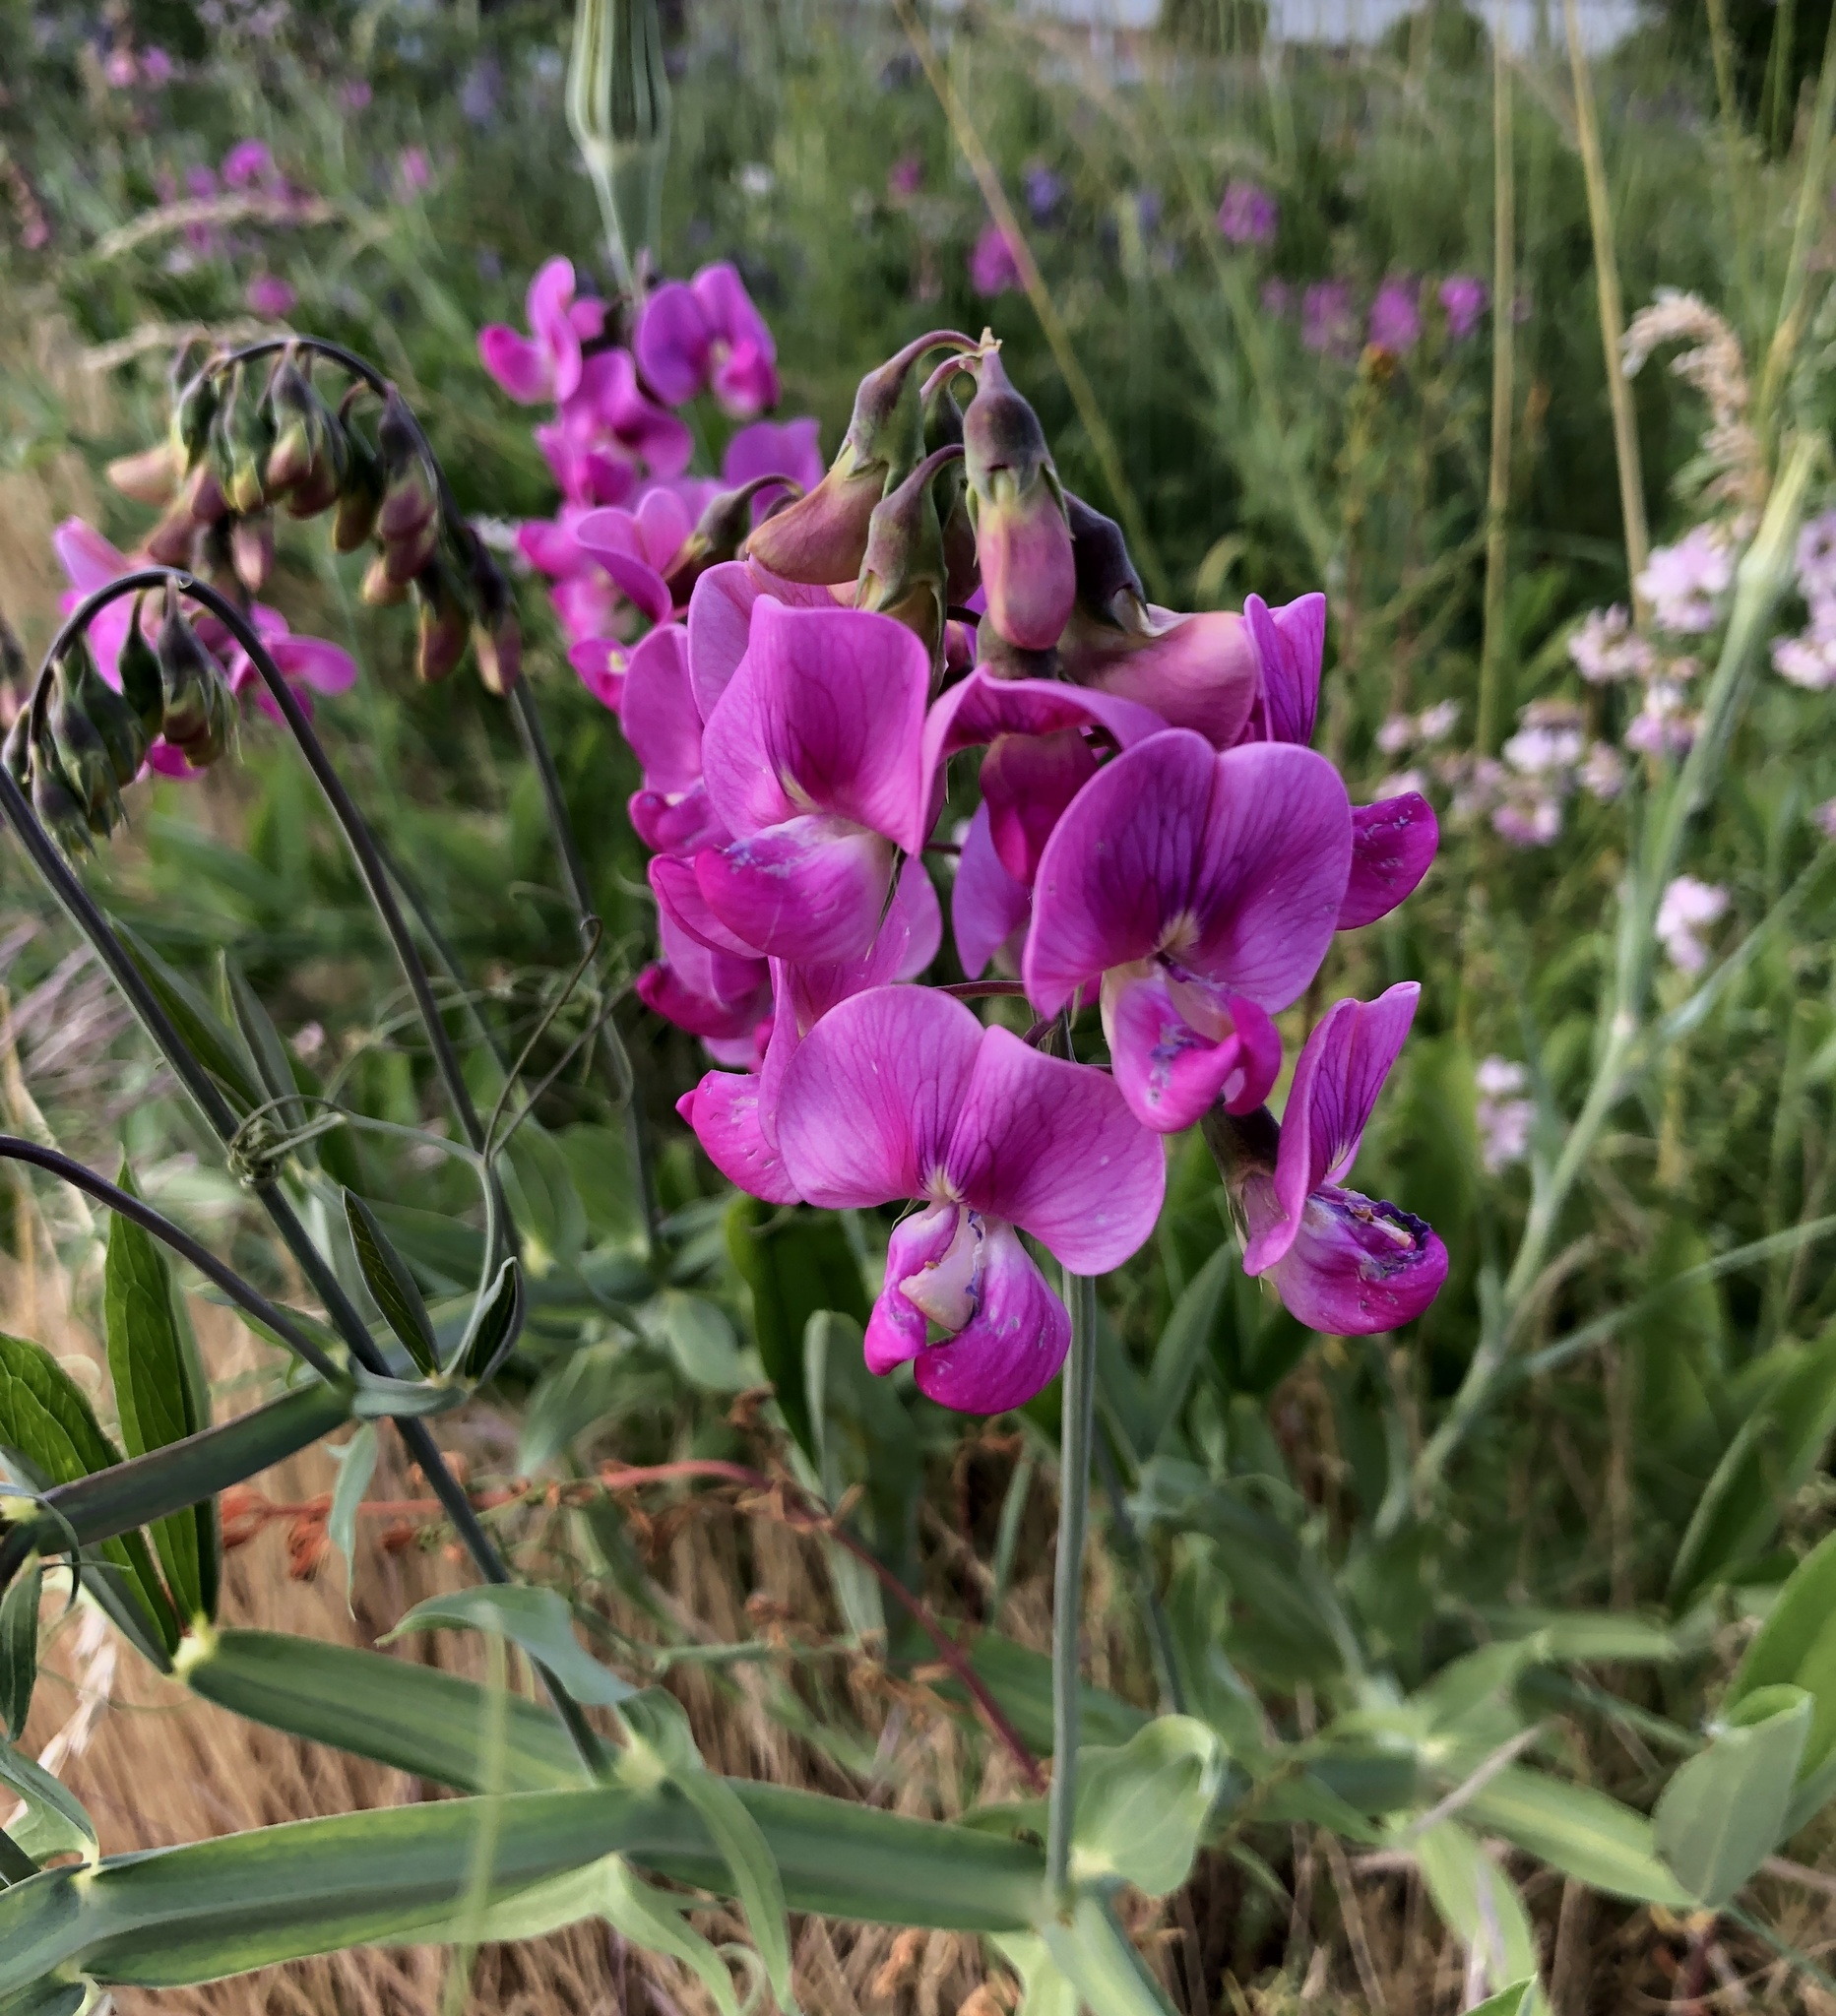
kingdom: Plantae
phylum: Tracheophyta
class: Magnoliopsida
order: Fabales
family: Fabaceae
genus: Lathyrus
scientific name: Lathyrus latifolius
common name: Perennial pea
